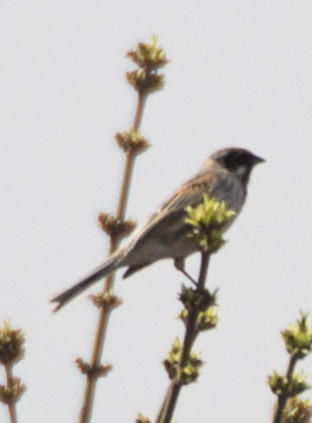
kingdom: Animalia
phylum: Chordata
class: Aves
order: Passeriformes
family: Emberizidae
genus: Emberiza
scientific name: Emberiza schoeniclus
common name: Reed bunting
